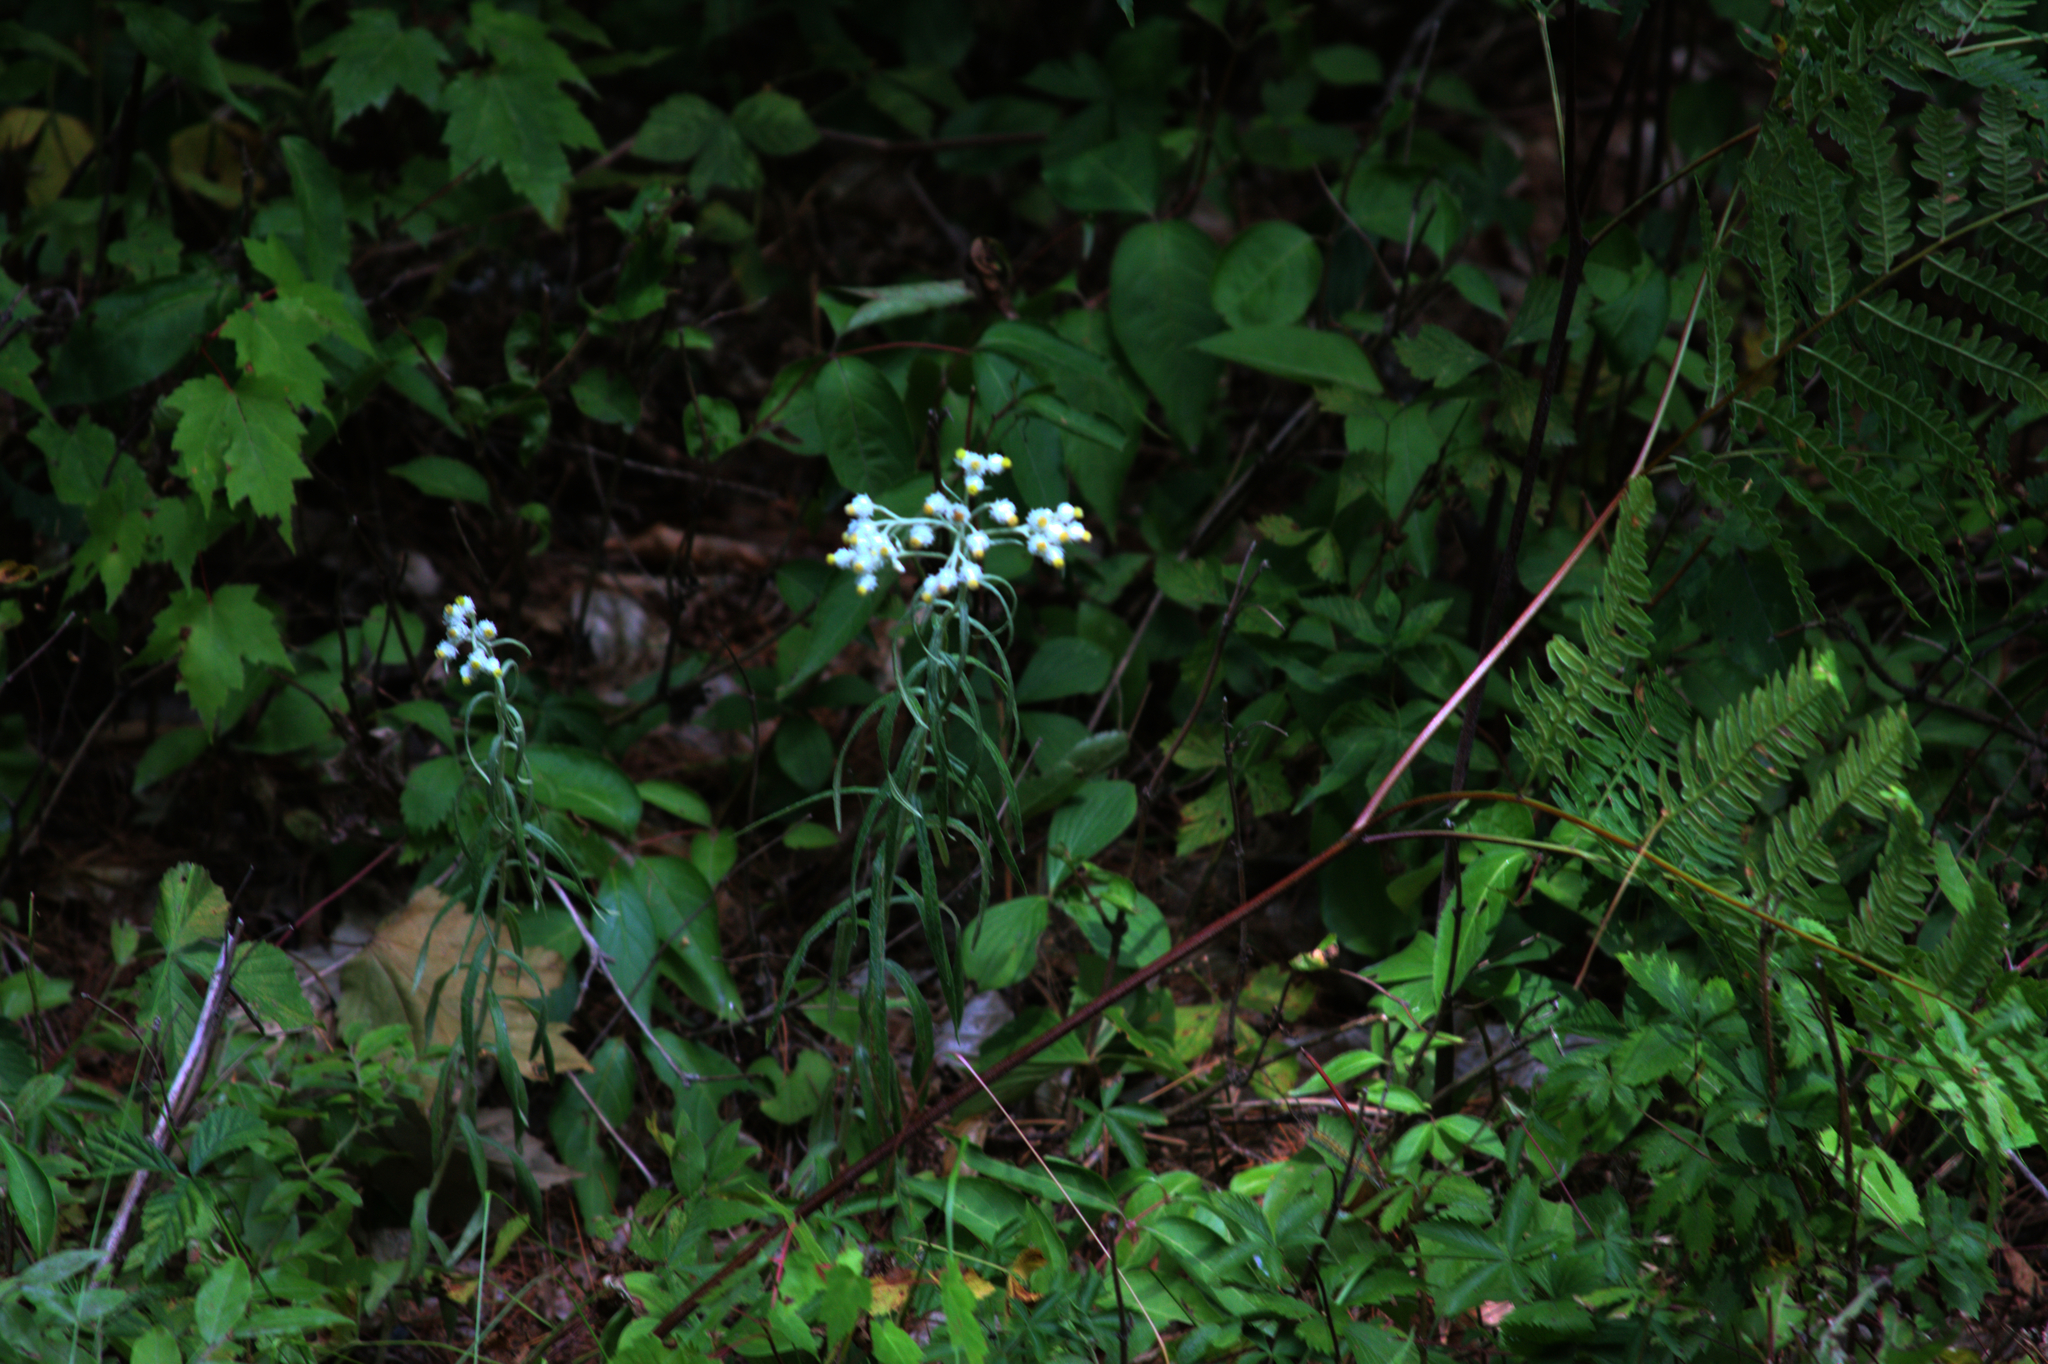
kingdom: Plantae
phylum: Tracheophyta
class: Magnoliopsida
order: Asterales
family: Asteraceae
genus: Anaphalis
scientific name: Anaphalis margaritacea
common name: Pearly everlasting
